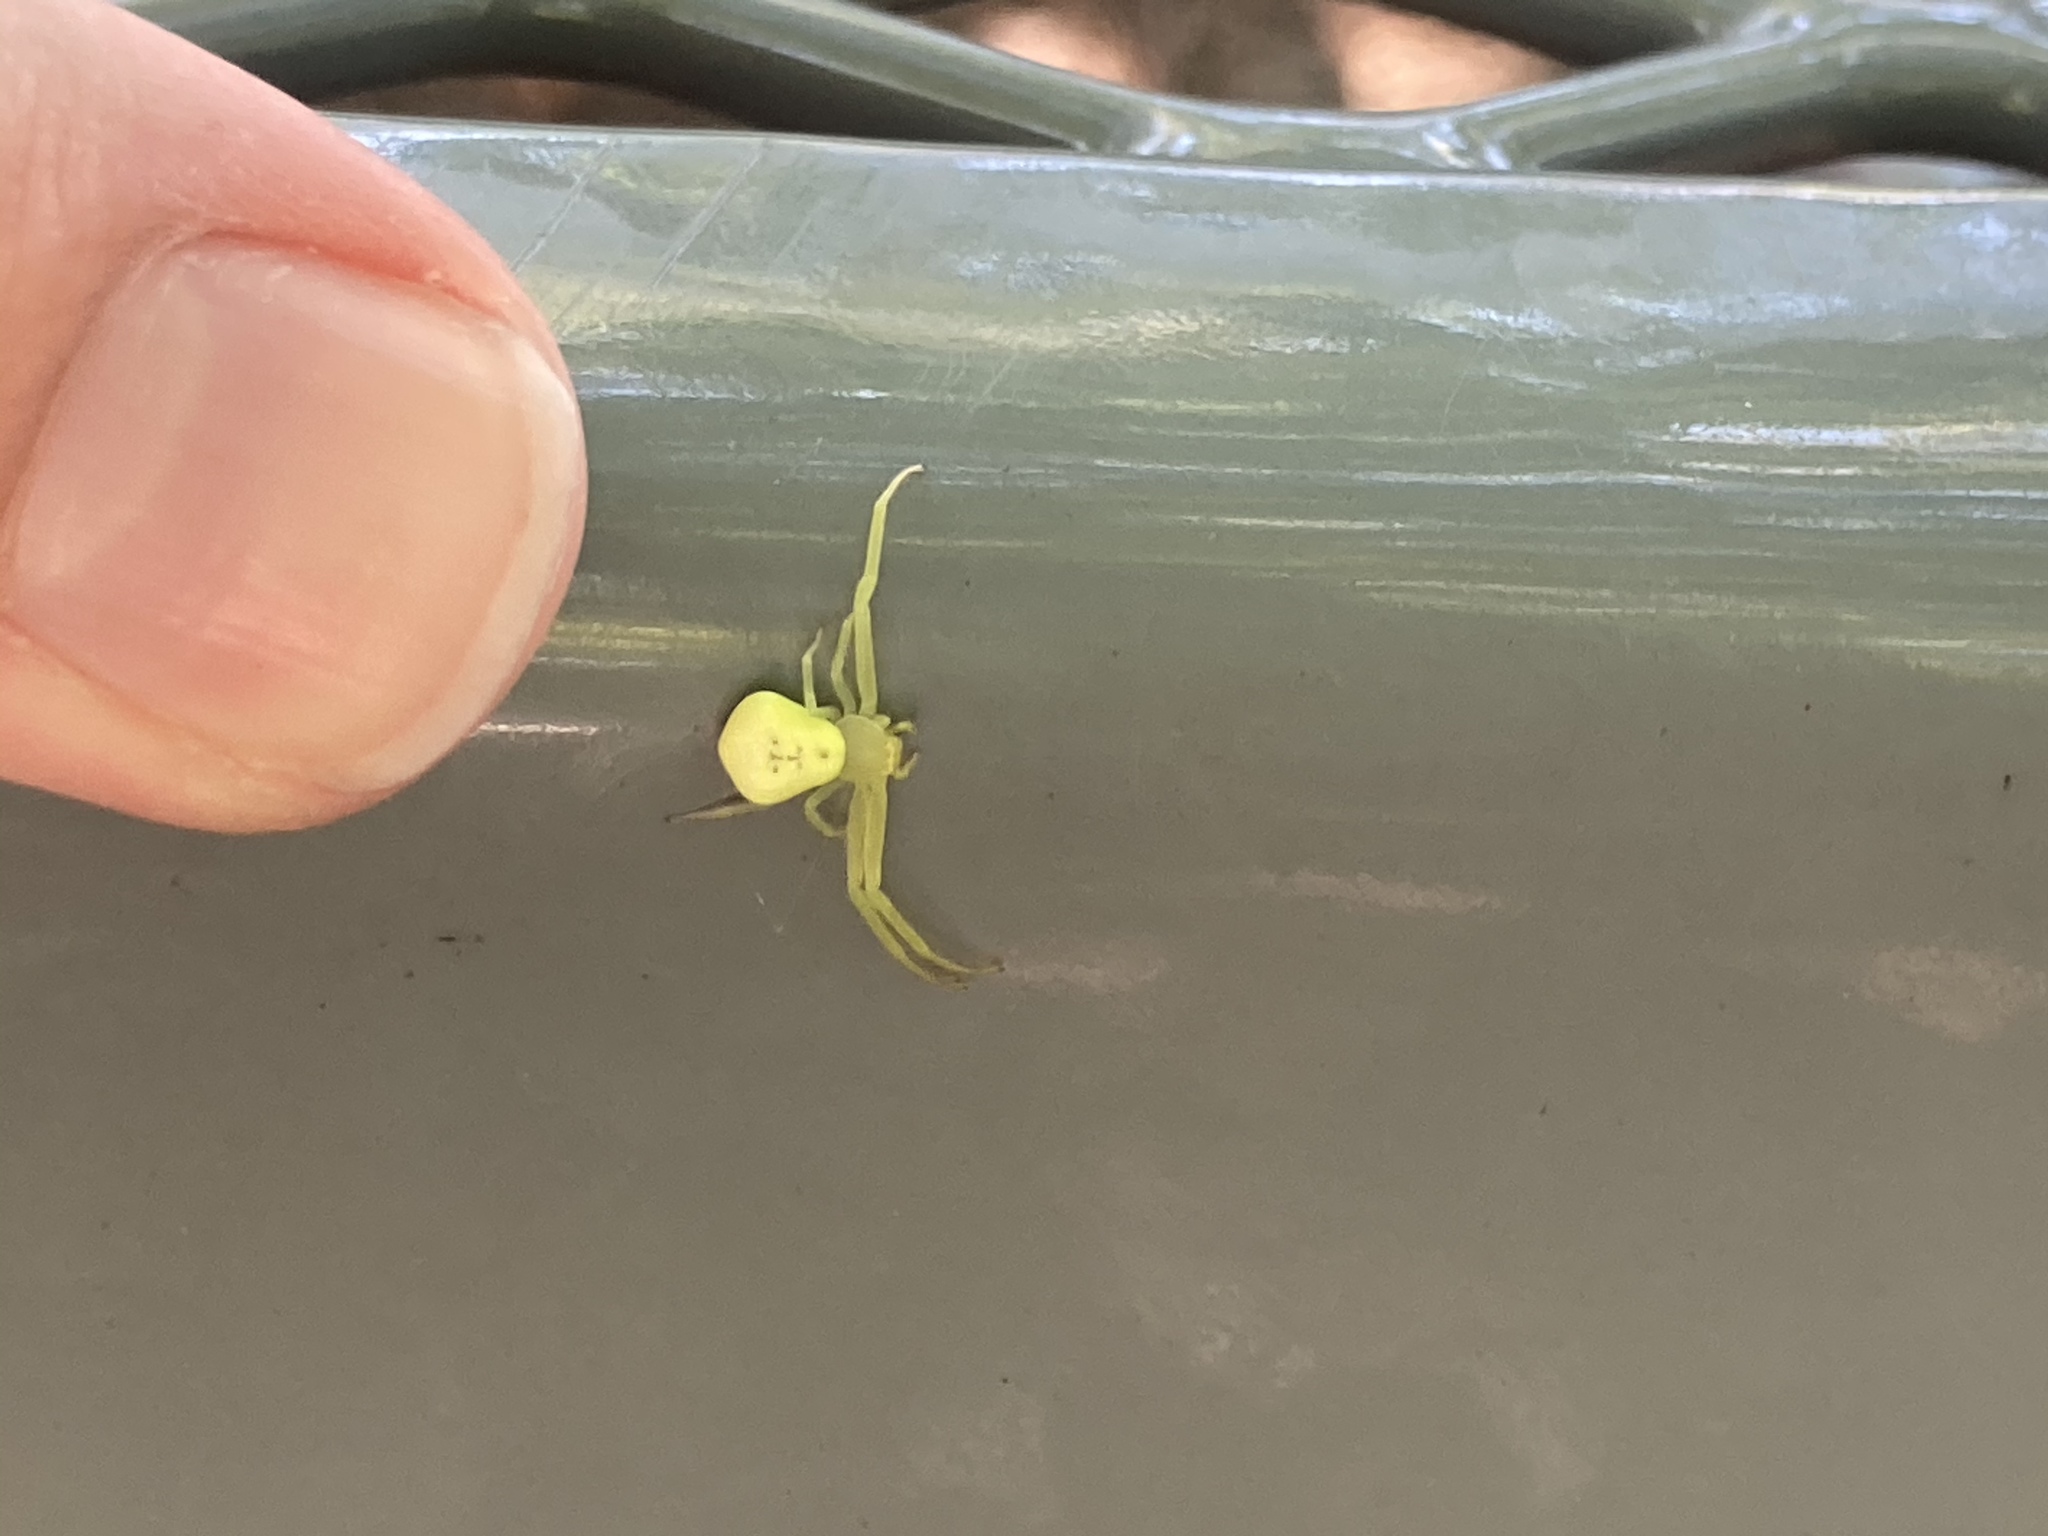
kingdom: Animalia
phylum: Arthropoda
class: Arachnida
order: Araneae
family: Thomisidae
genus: Misumessus
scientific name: Misumessus oblongus
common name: American green crab spider
